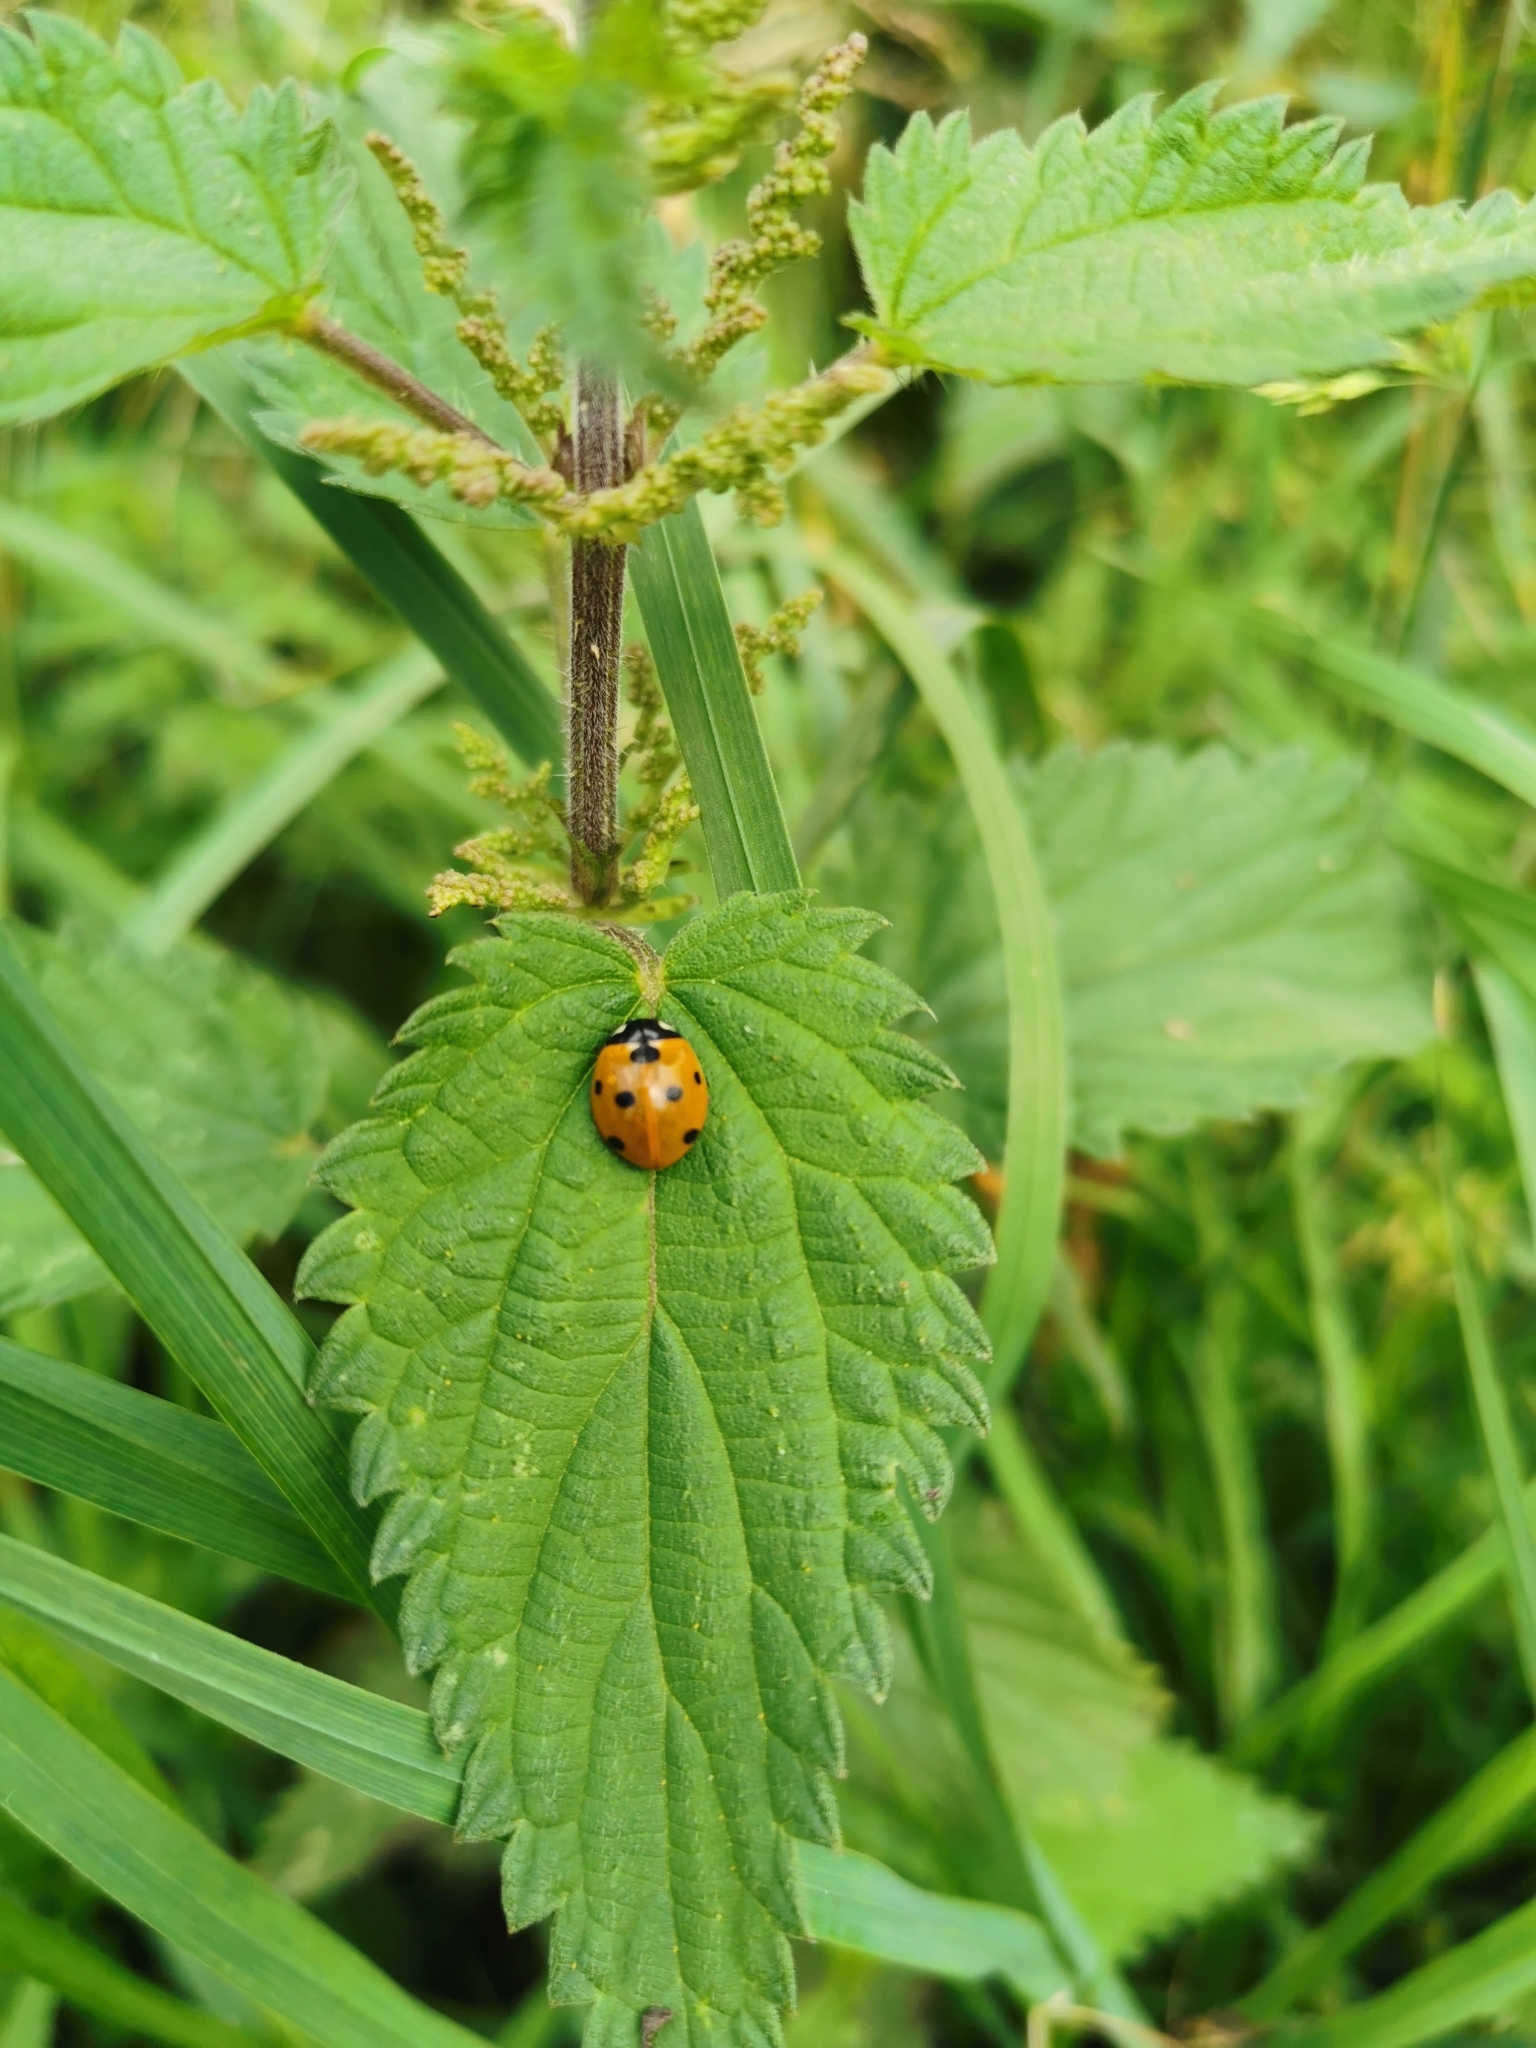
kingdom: Animalia
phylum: Arthropoda
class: Insecta
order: Coleoptera
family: Coccinellidae
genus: Coccinella
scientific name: Coccinella septempunctata
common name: Sevenspotted lady beetle
